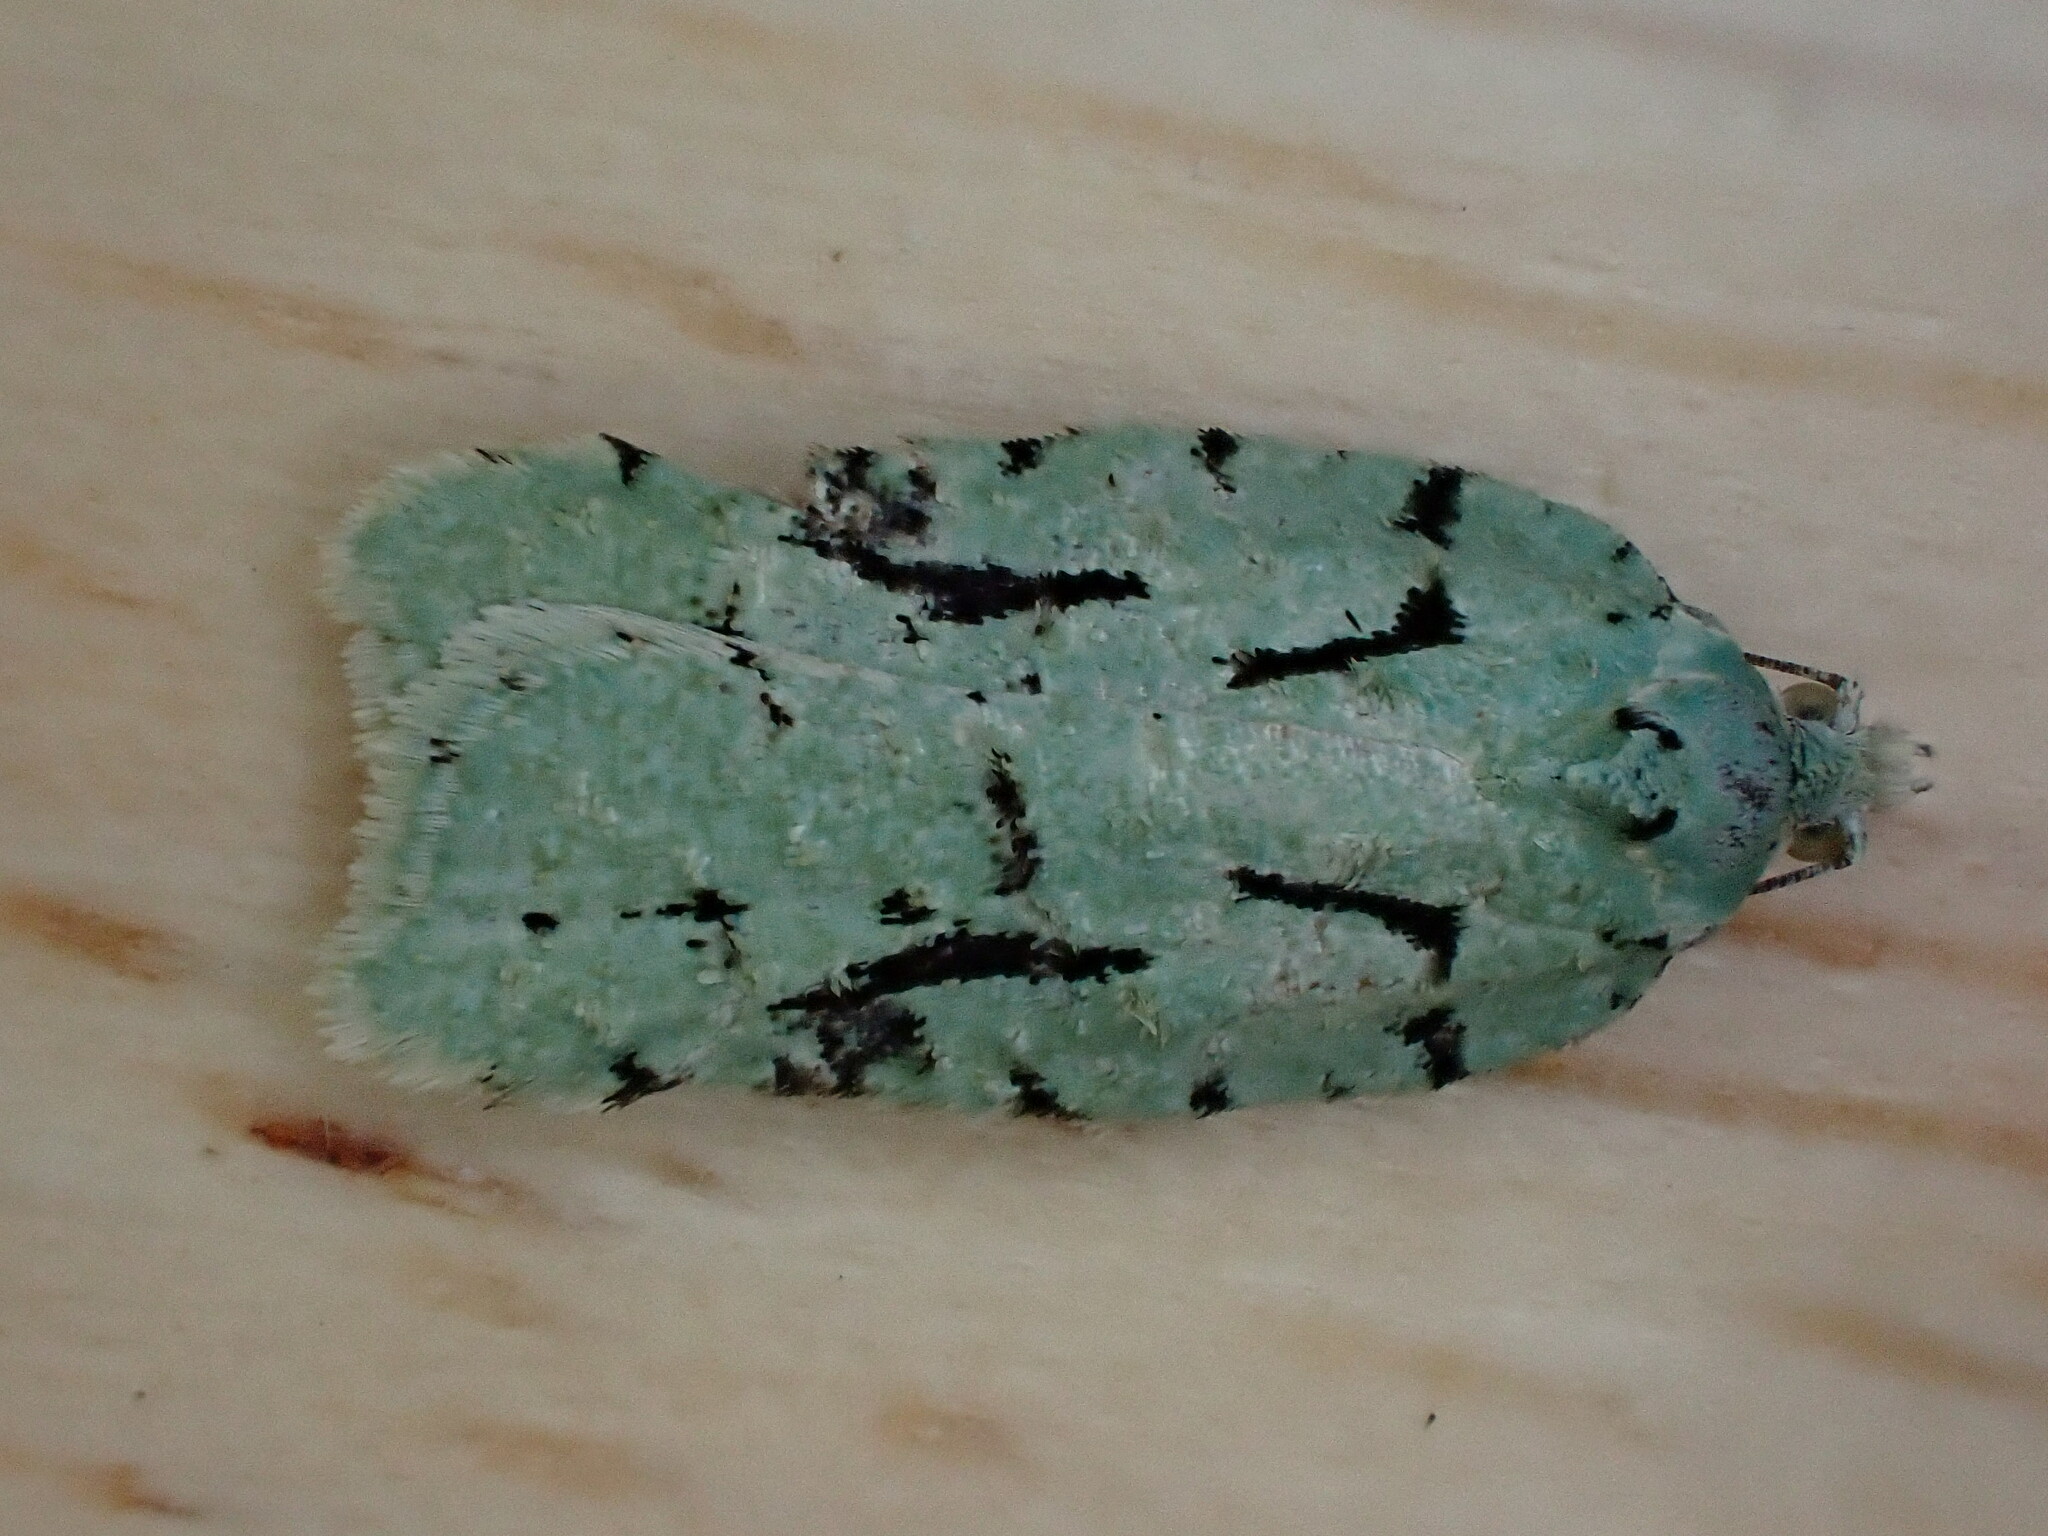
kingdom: Animalia
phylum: Arthropoda
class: Insecta
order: Lepidoptera
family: Tortricidae
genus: Acleris
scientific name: Acleris literana
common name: Lichen button
